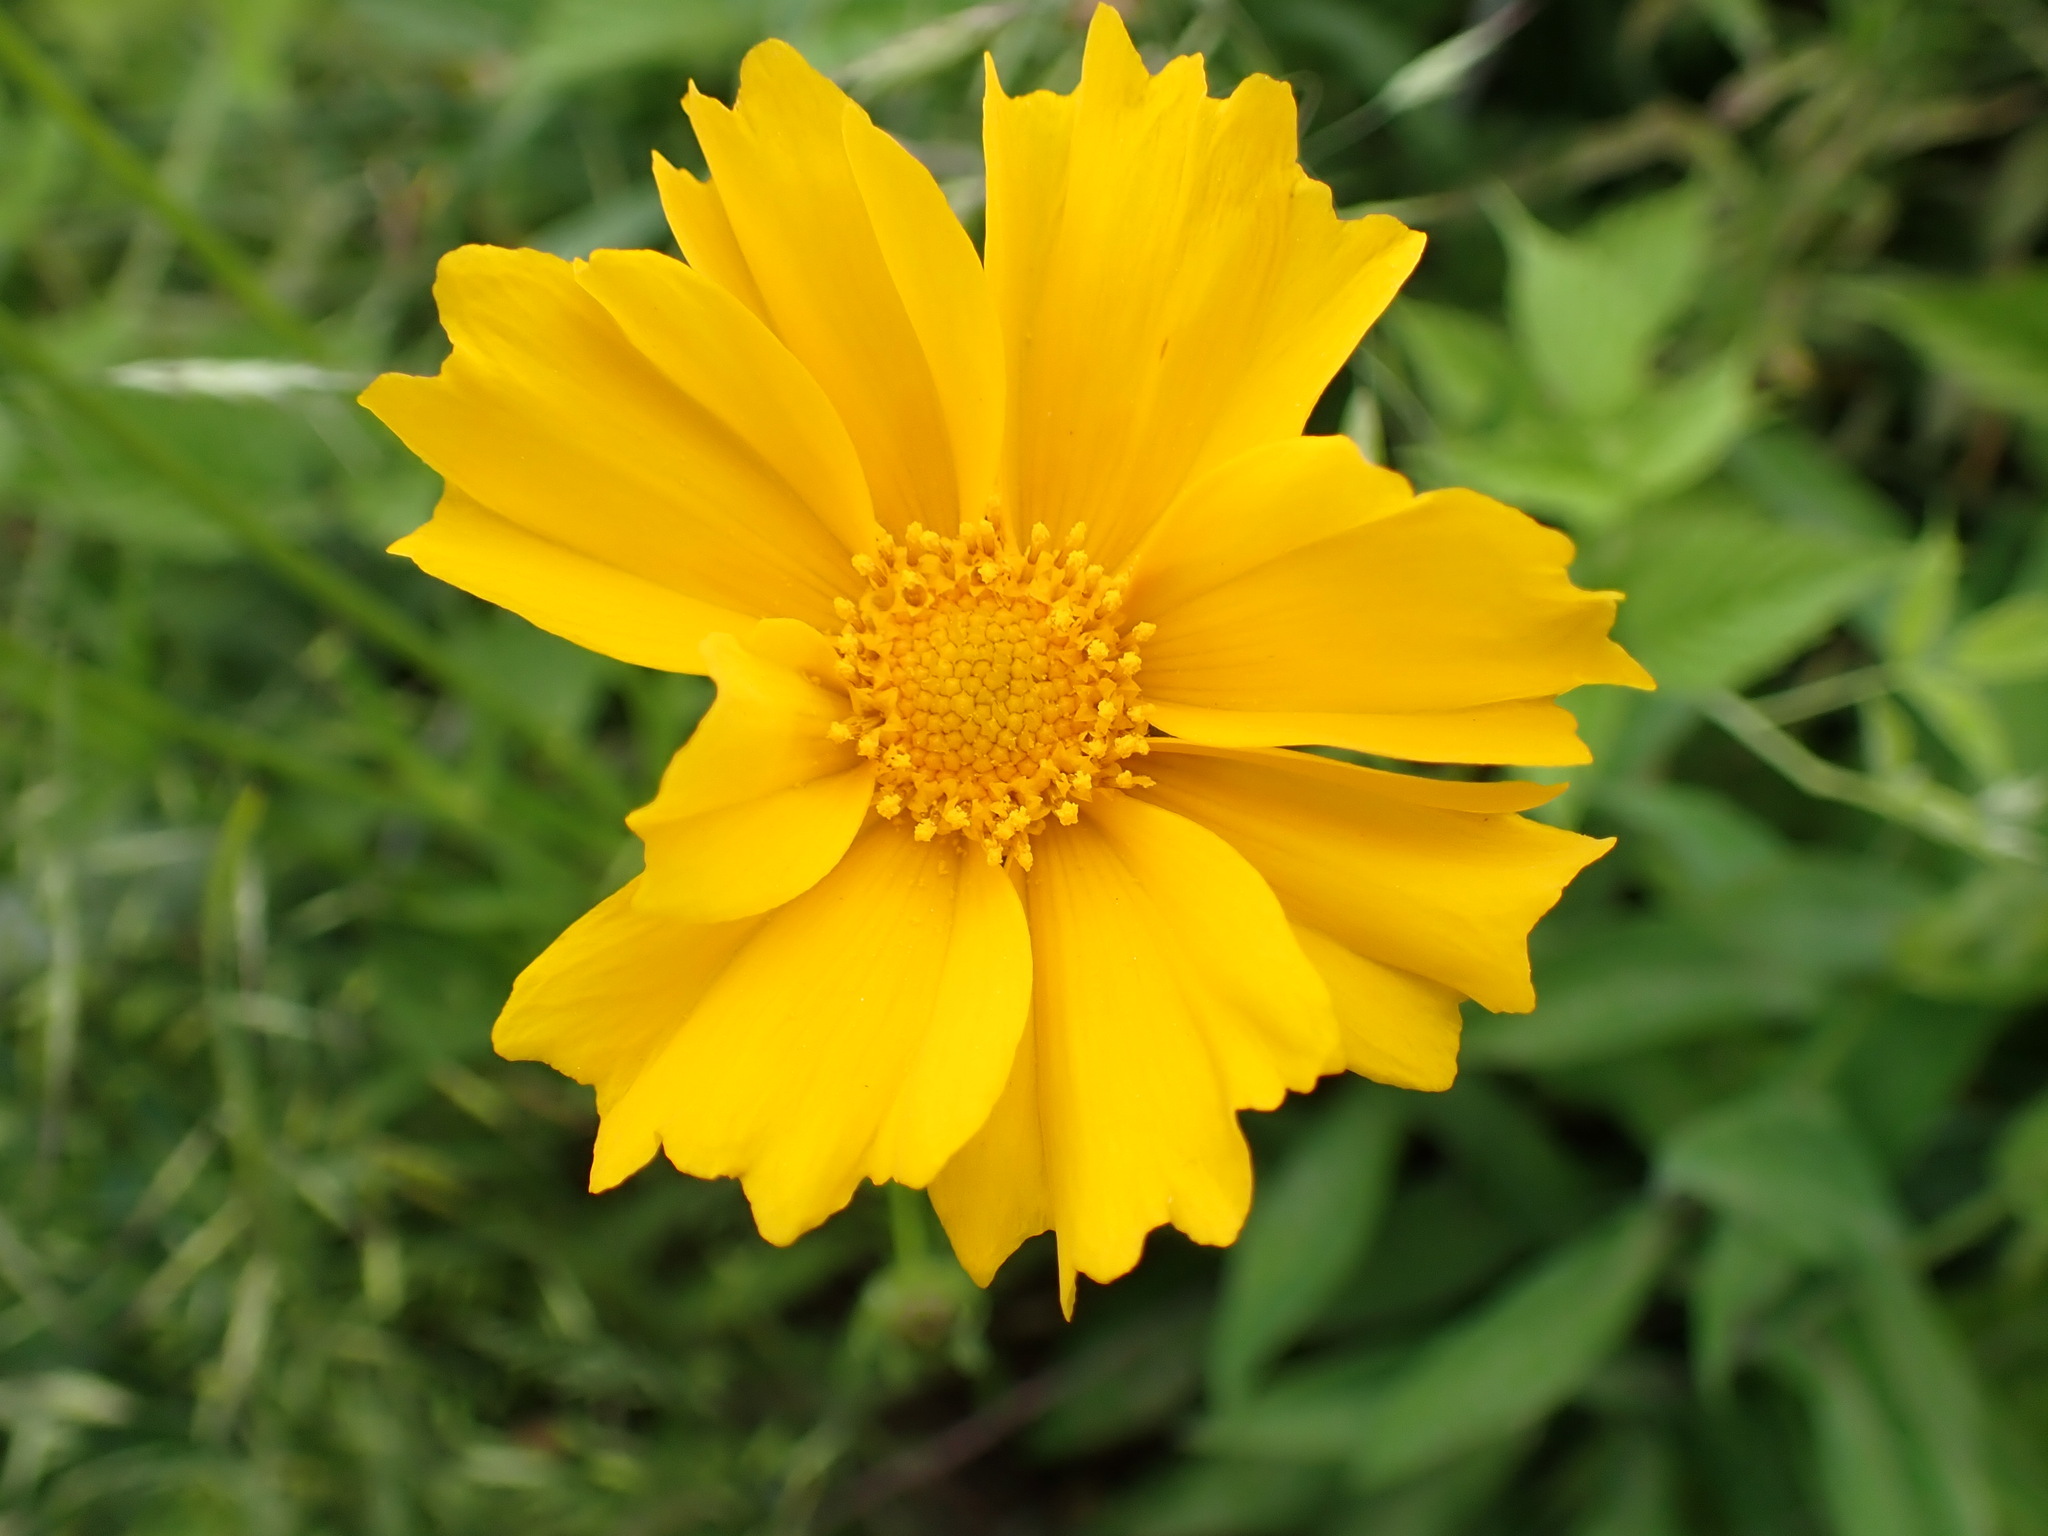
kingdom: Plantae
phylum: Tracheophyta
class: Magnoliopsida
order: Asterales
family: Asteraceae
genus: Coreopsis
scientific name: Coreopsis lanceolata
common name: Garden coreopsis
